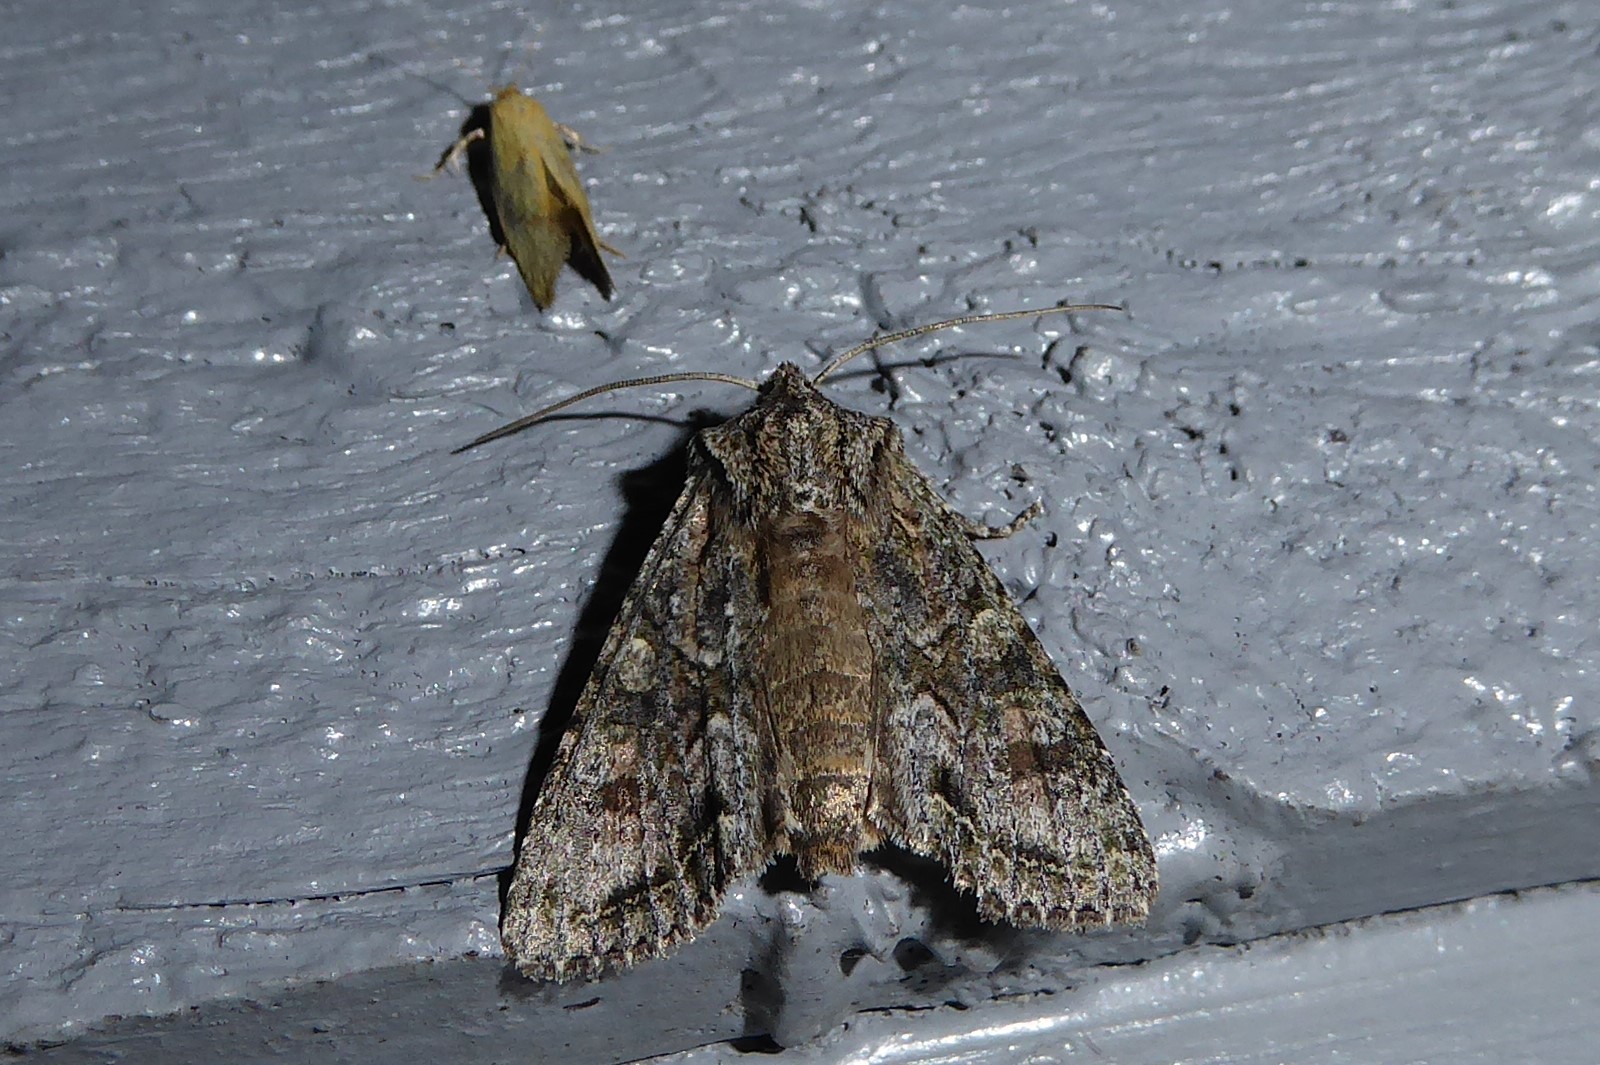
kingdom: Animalia
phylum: Arthropoda
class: Insecta
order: Lepidoptera
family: Noctuidae
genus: Ichneutica
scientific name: Ichneutica mutans
